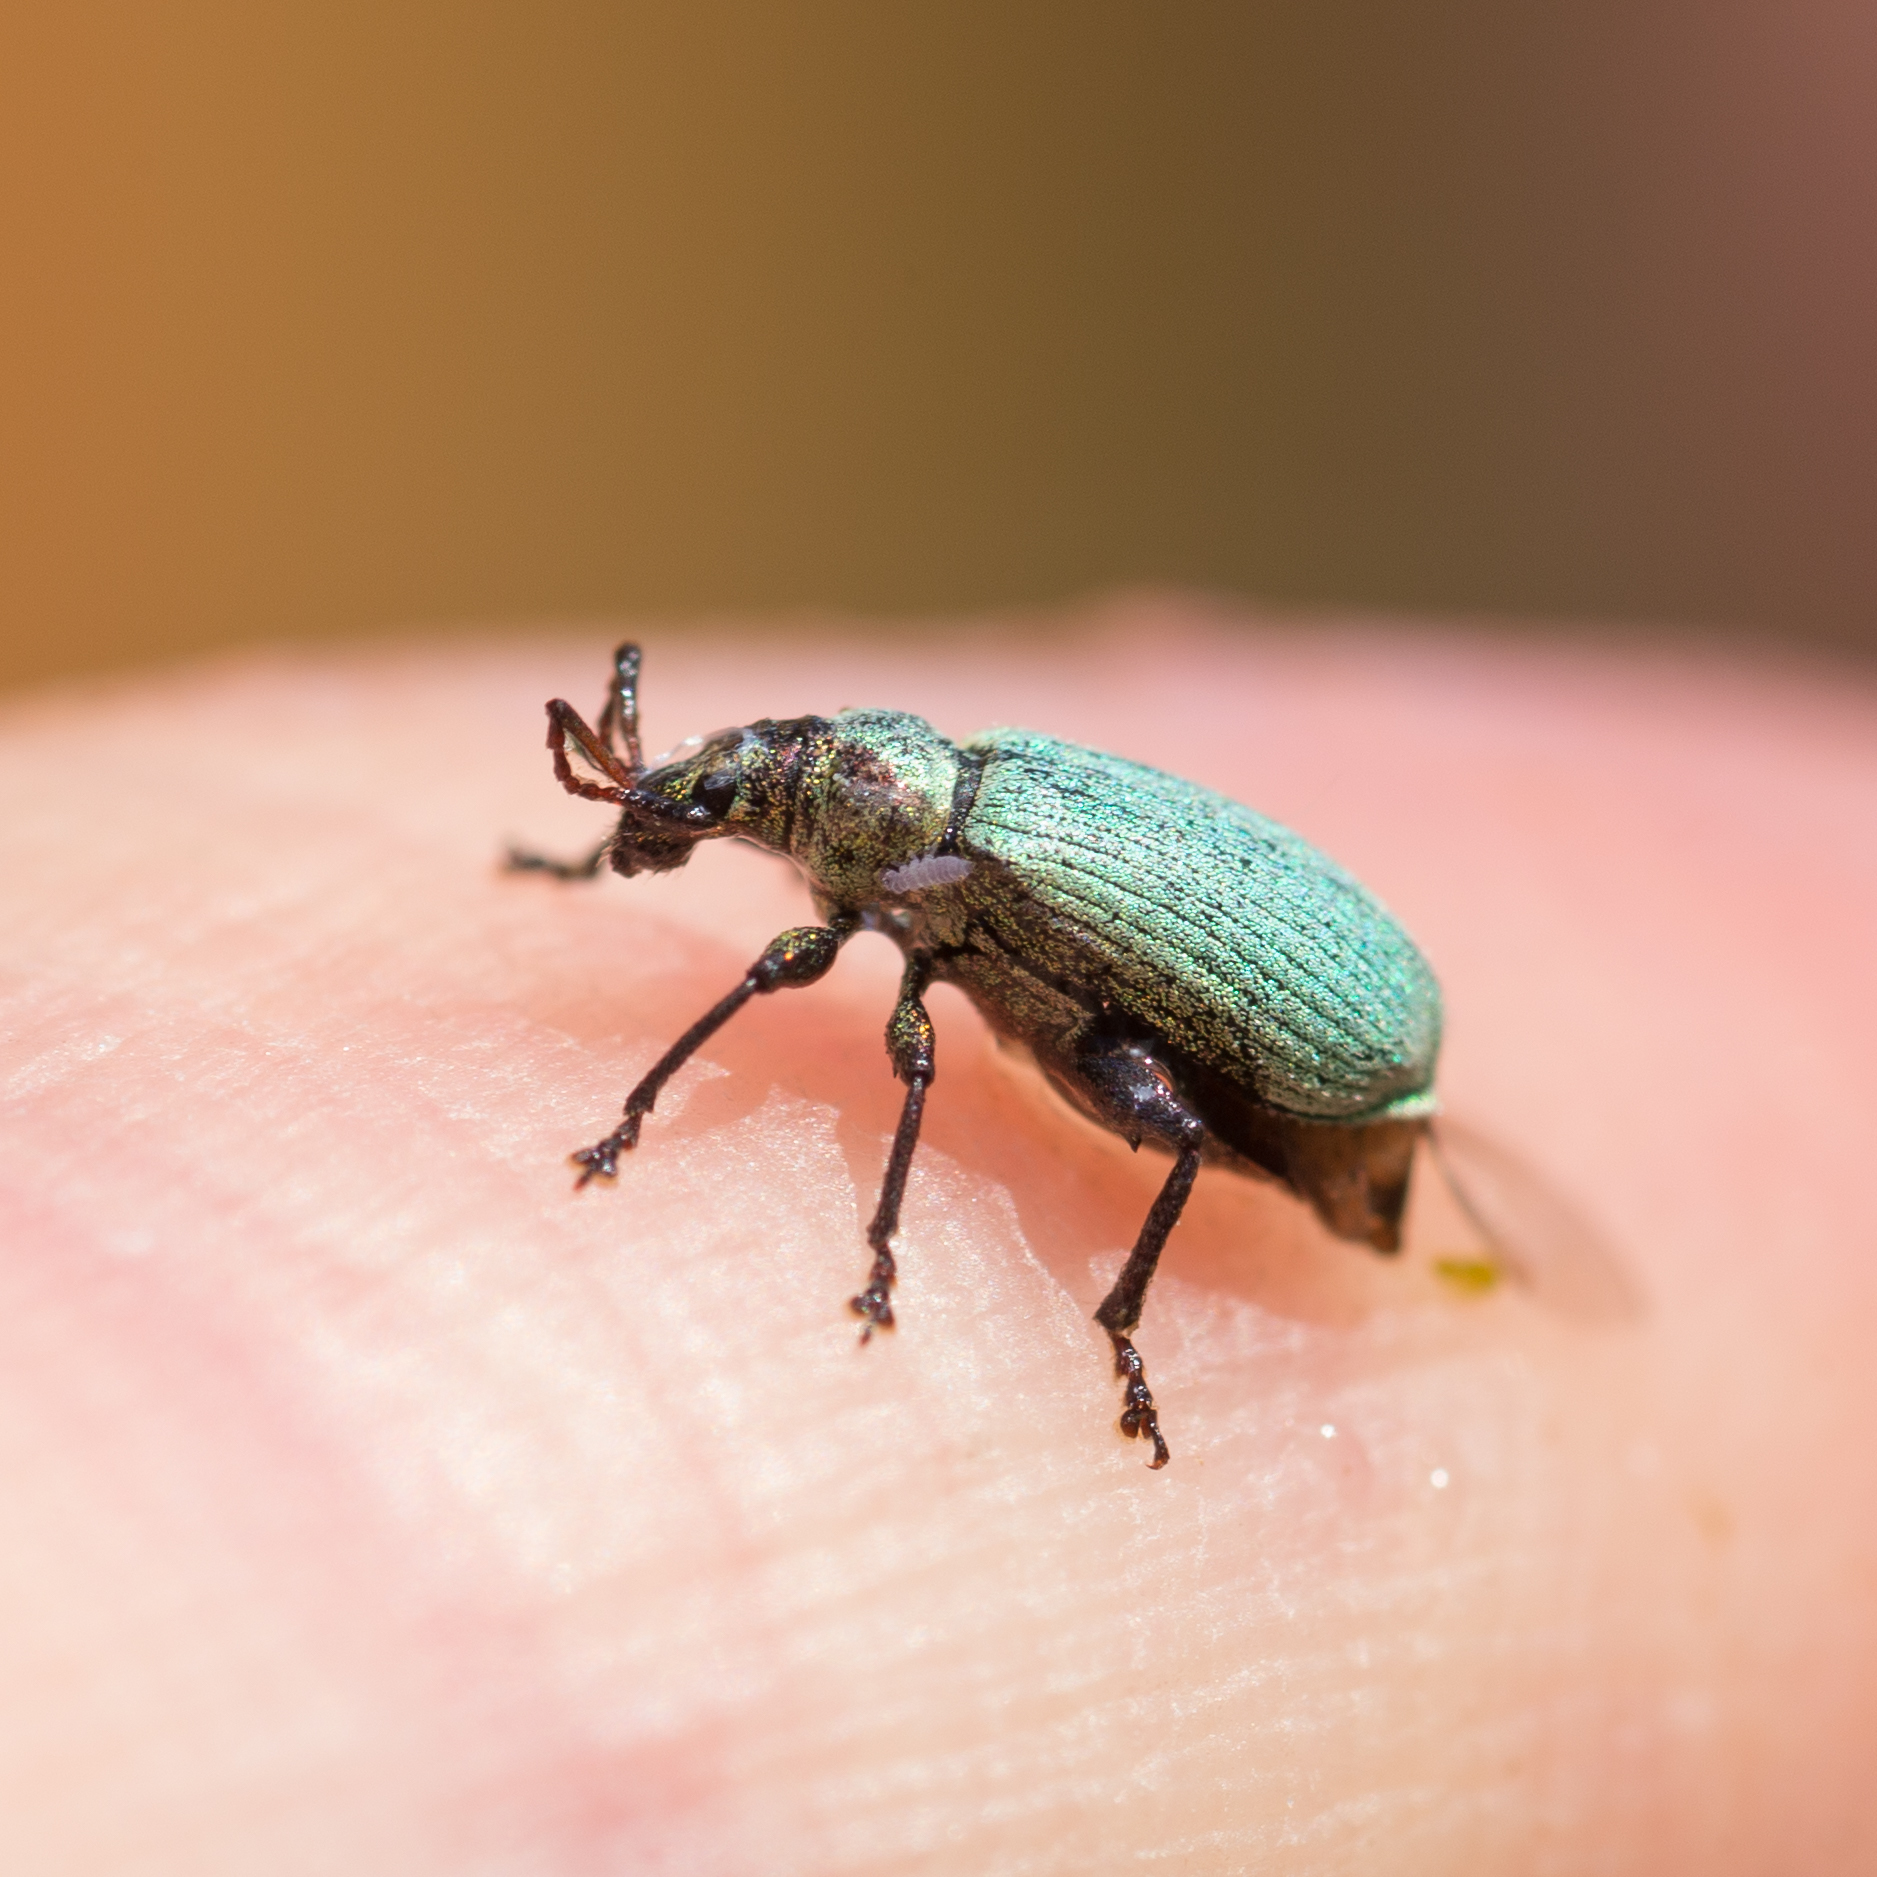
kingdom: Animalia
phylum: Arthropoda
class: Insecta
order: Coleoptera
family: Curculionidae
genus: Phyllobius
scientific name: Phyllobius maculicornis
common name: Green leaf weevil
